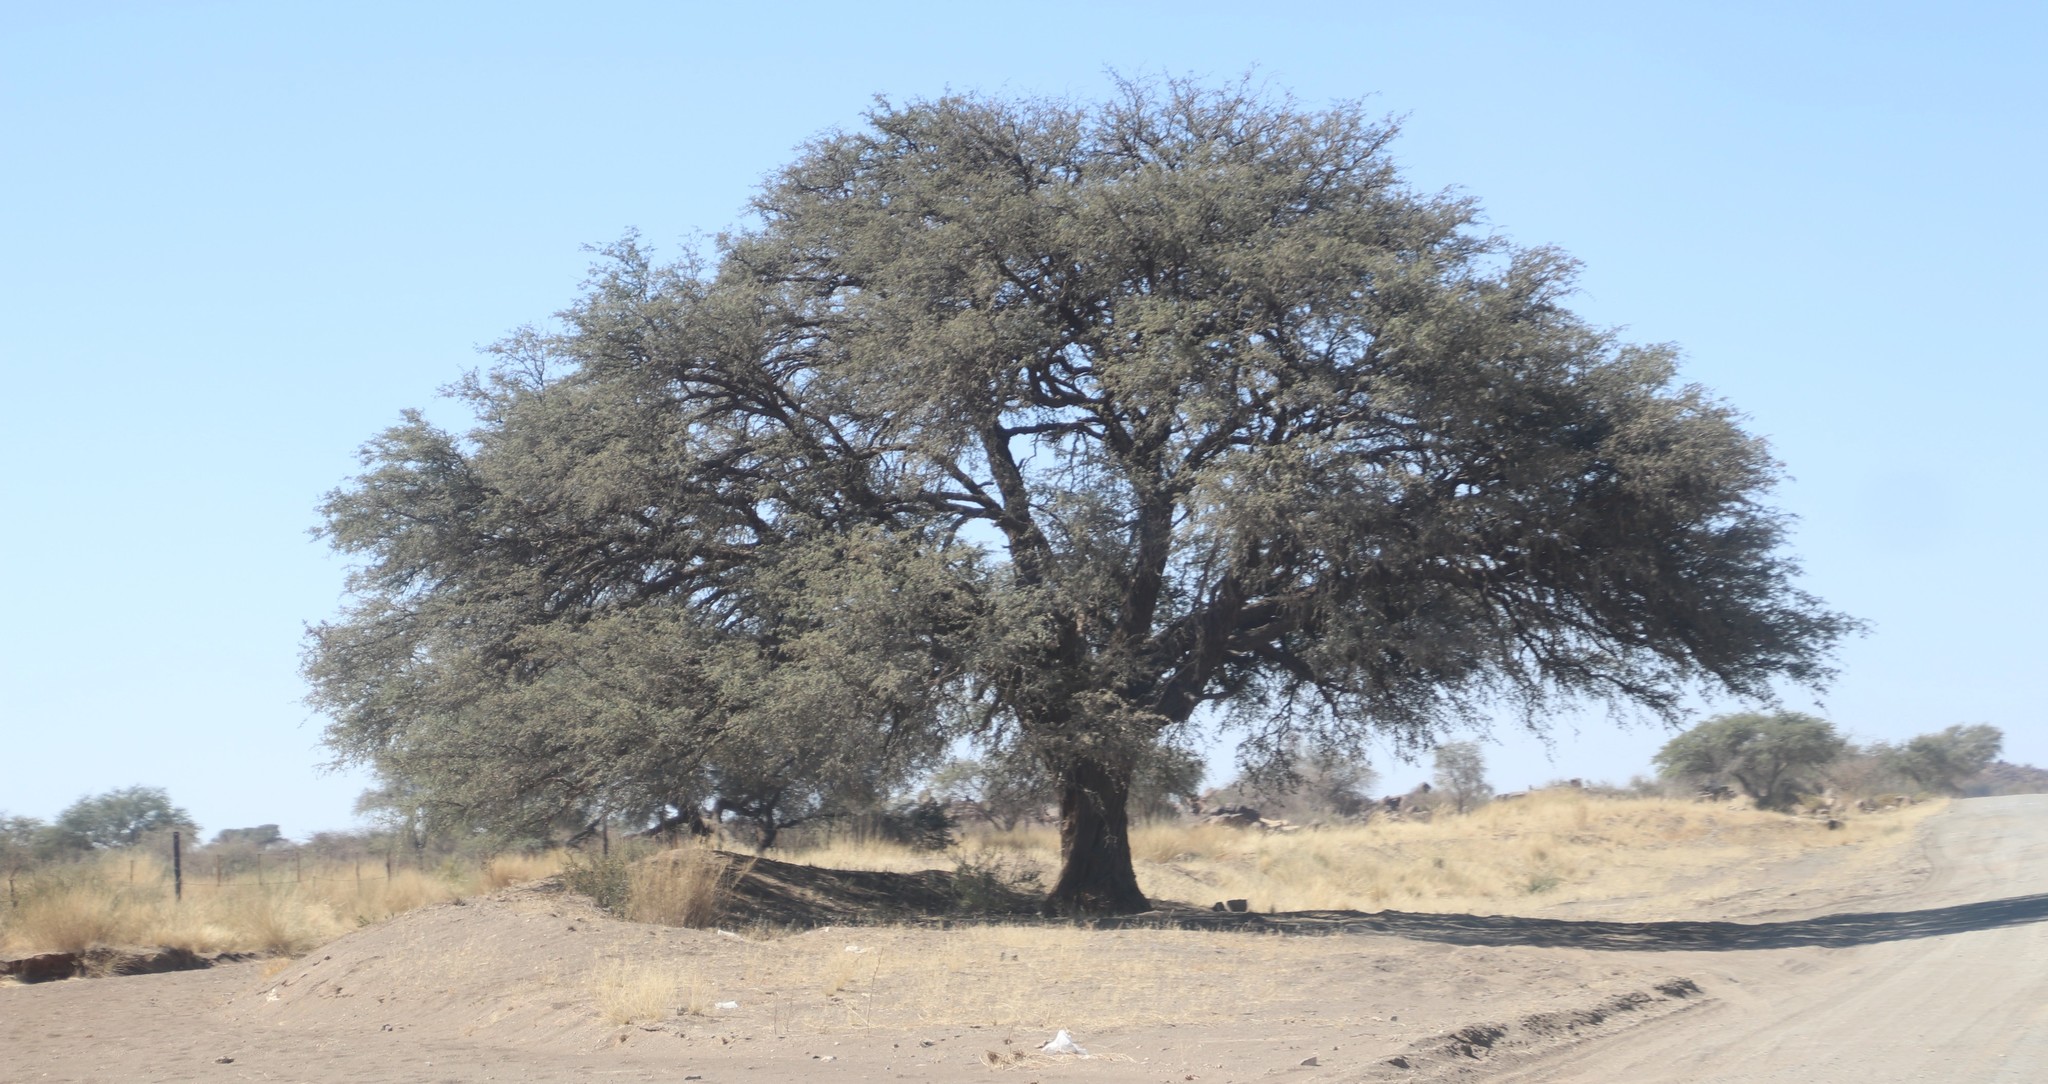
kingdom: Plantae
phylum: Tracheophyta
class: Magnoliopsida
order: Fabales
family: Fabaceae
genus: Vachellia
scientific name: Vachellia erioloba
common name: Camel thorn
